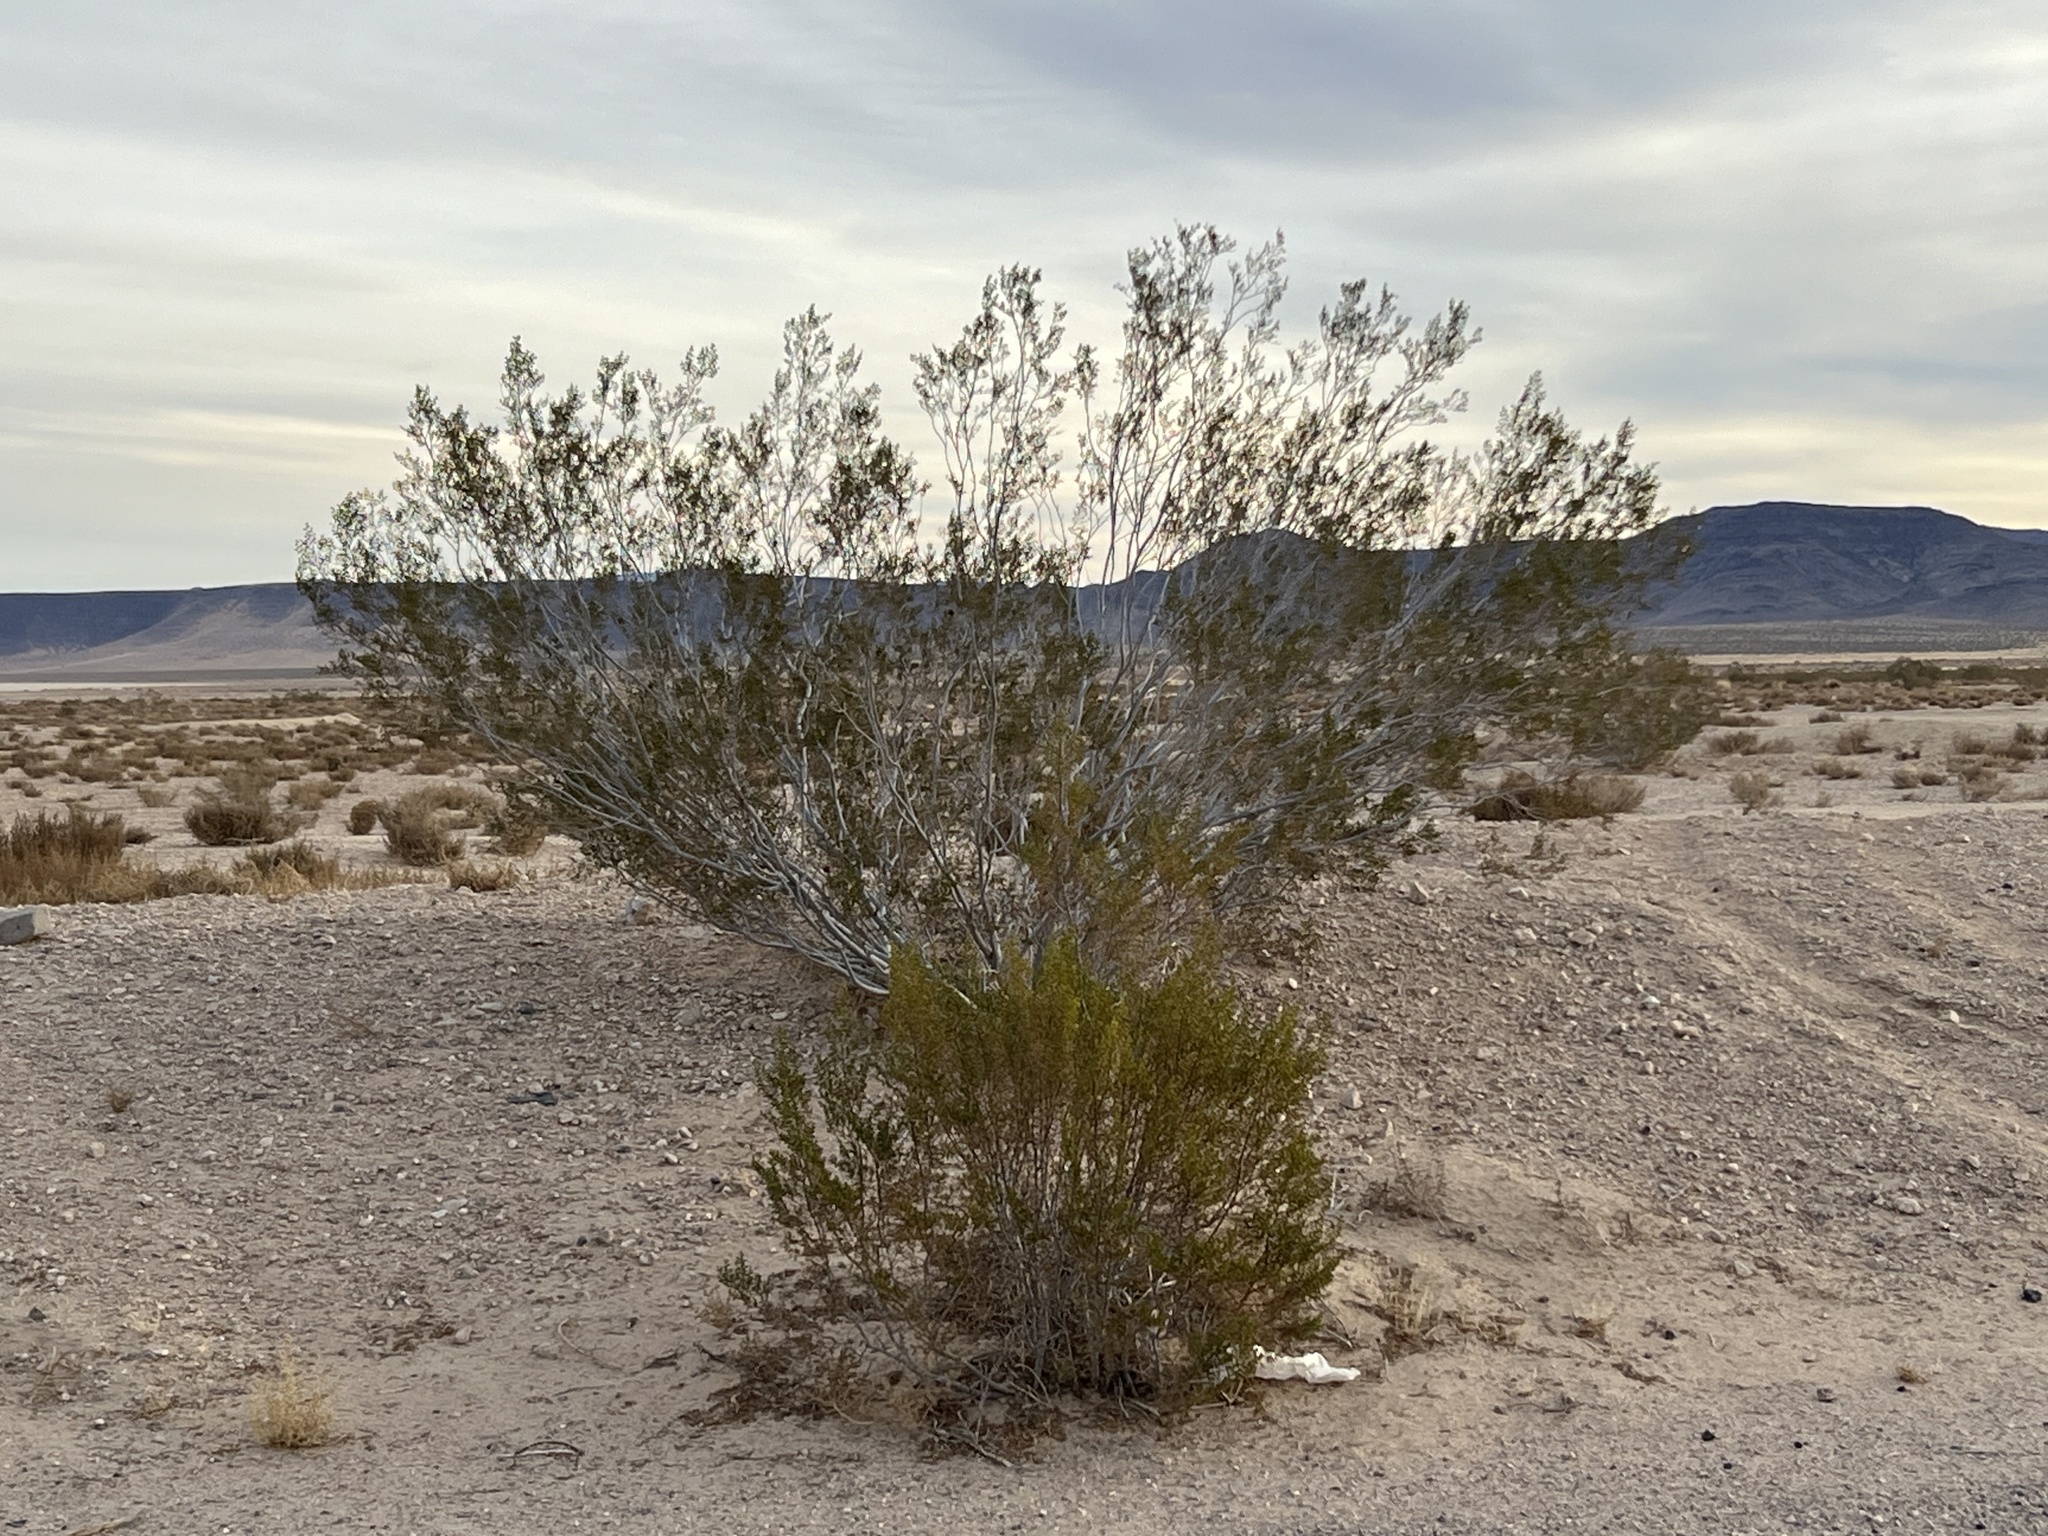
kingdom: Plantae
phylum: Tracheophyta
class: Magnoliopsida
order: Zygophyllales
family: Zygophyllaceae
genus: Larrea
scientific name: Larrea tridentata
